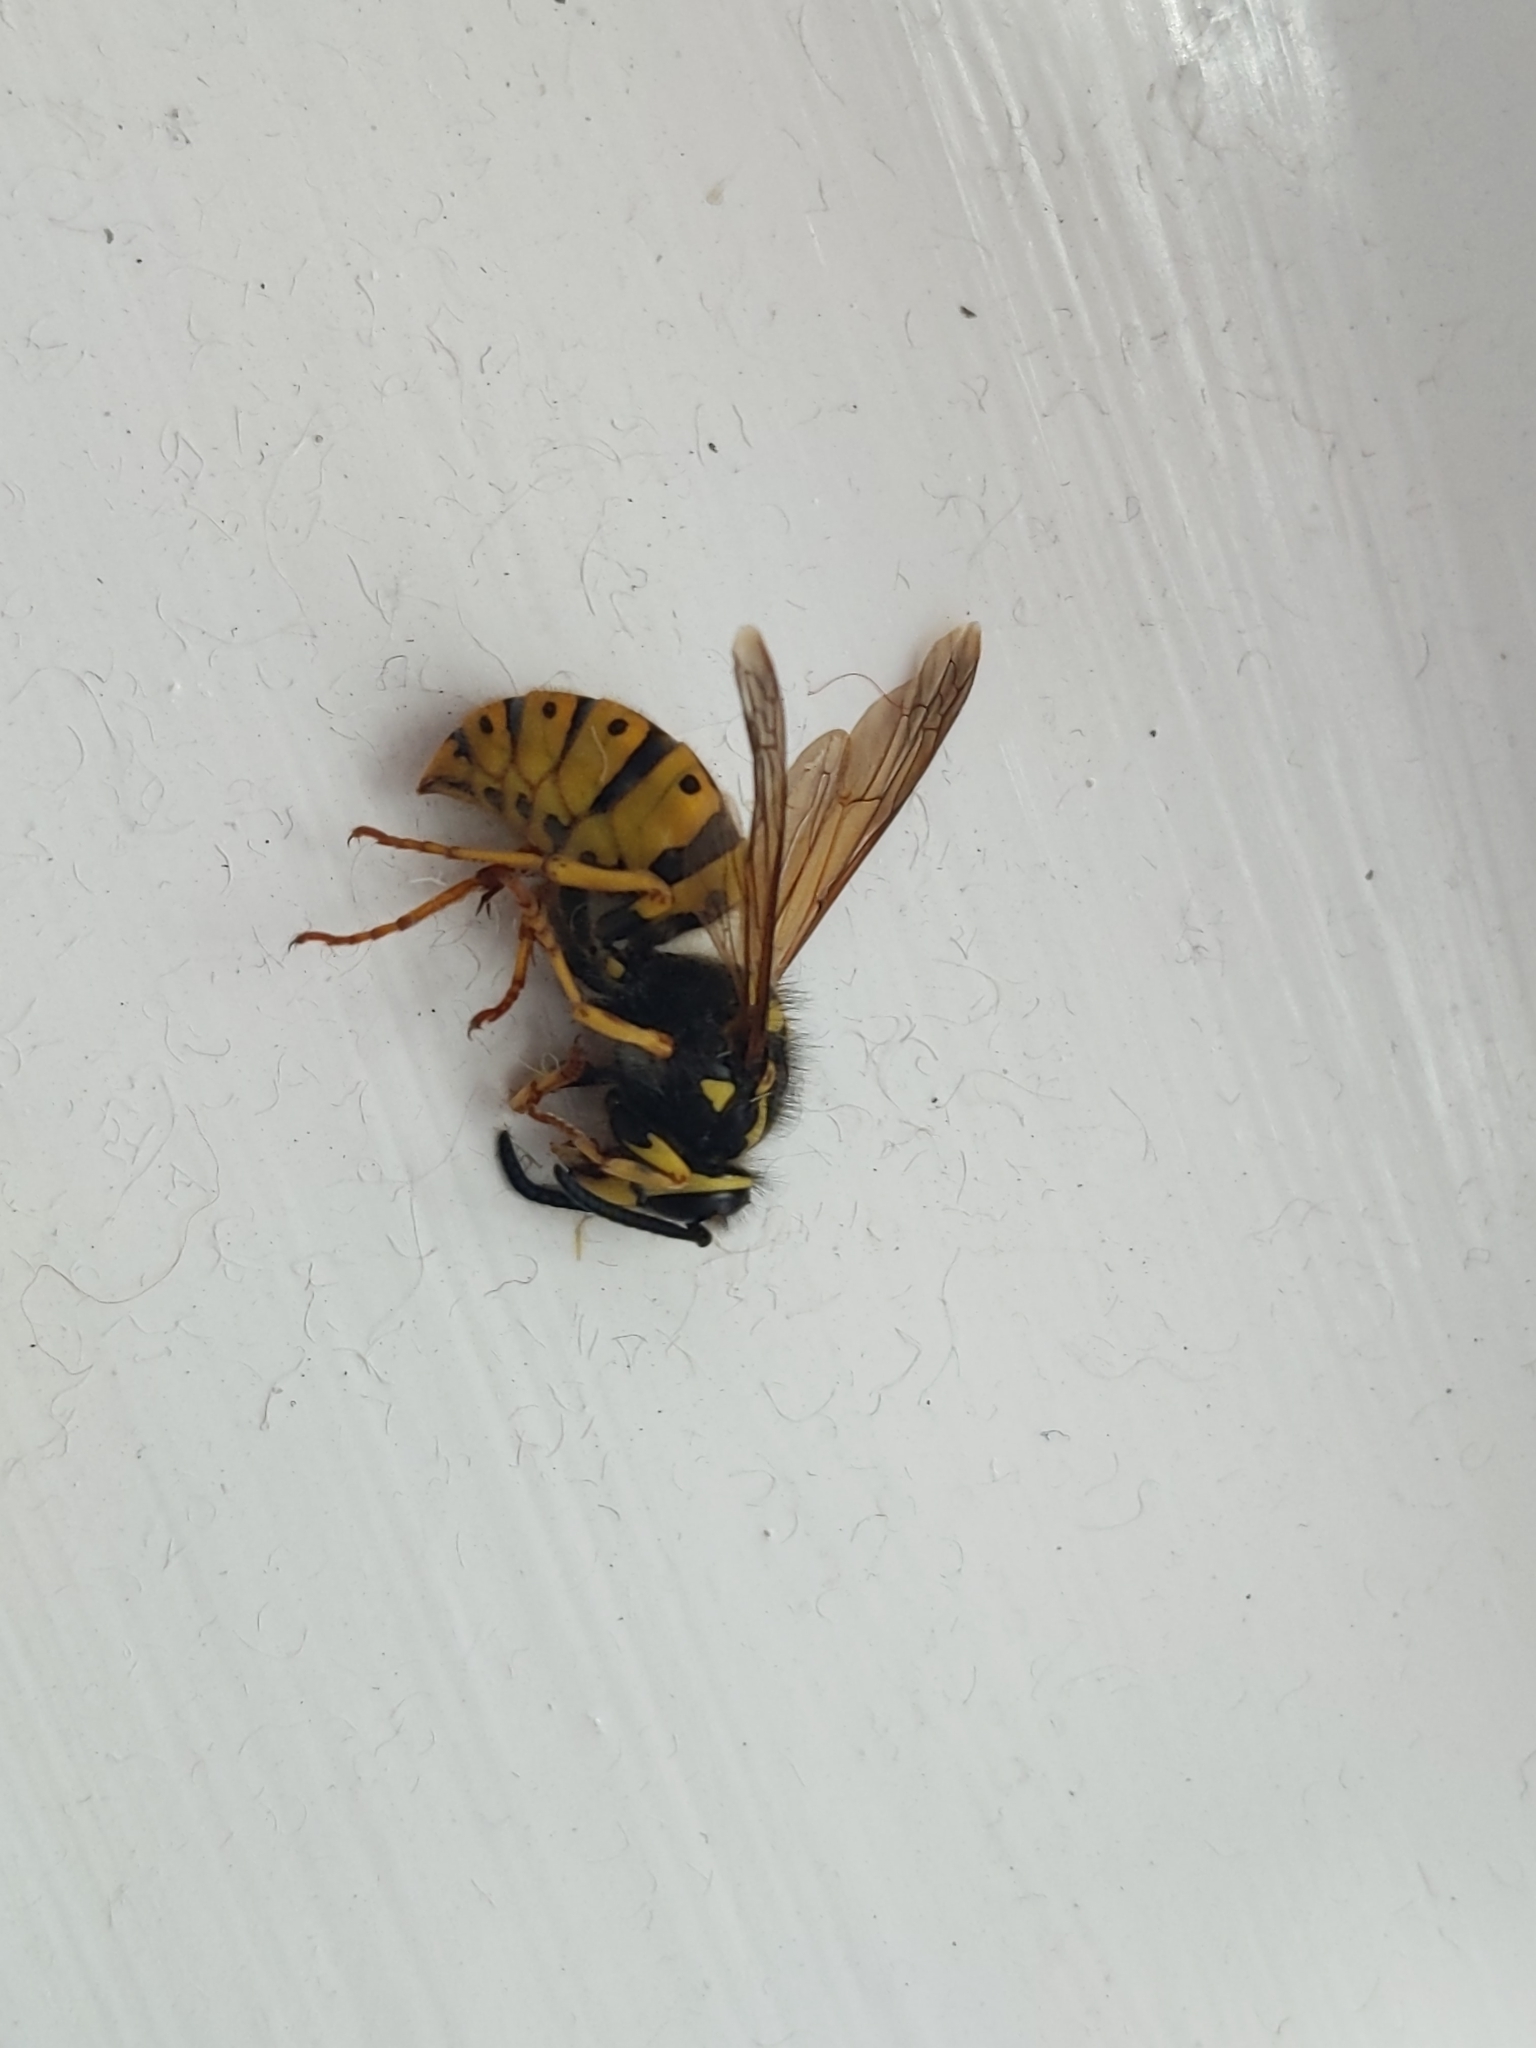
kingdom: Animalia
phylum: Arthropoda
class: Insecta
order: Hymenoptera
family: Vespidae
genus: Vespula
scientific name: Vespula germanica
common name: German wasp
